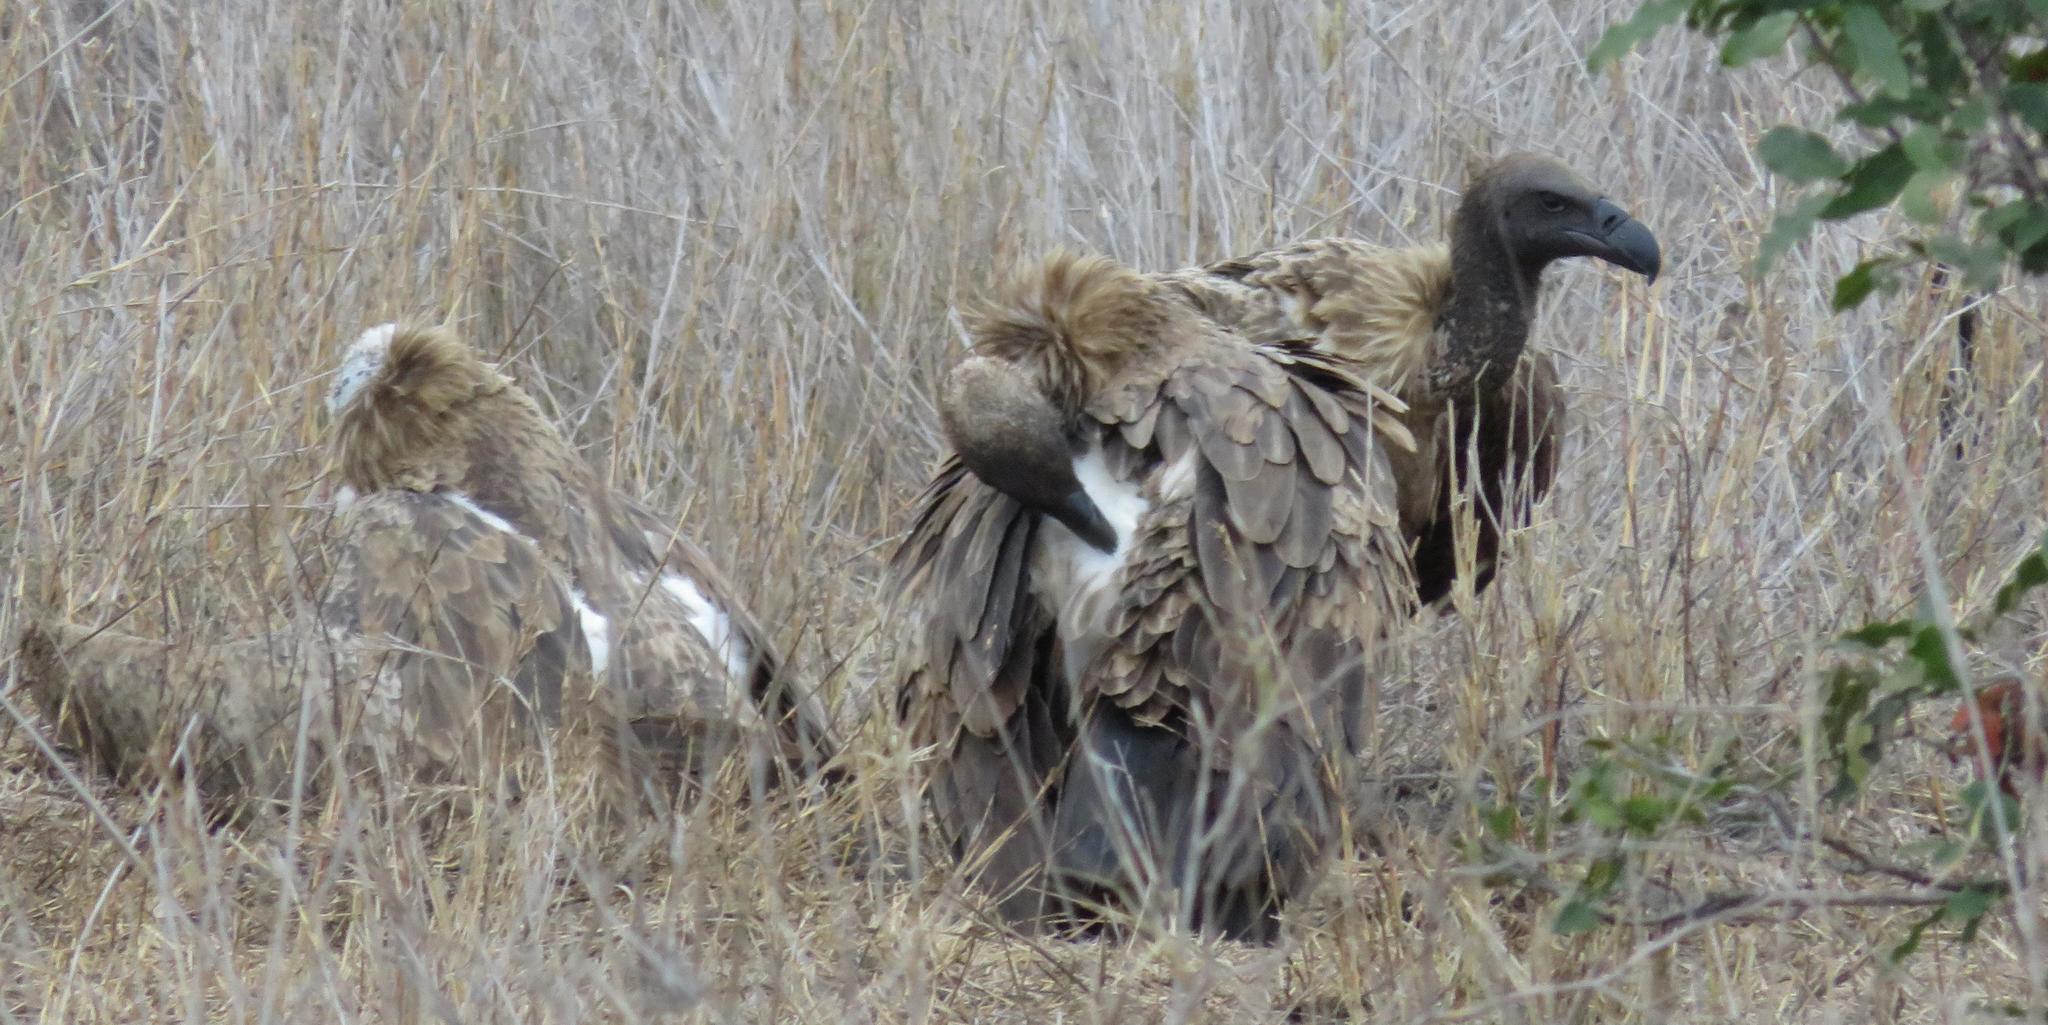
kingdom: Animalia
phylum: Chordata
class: Aves
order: Accipitriformes
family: Accipitridae
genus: Gyps
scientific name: Gyps africanus
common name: White-backed vulture
